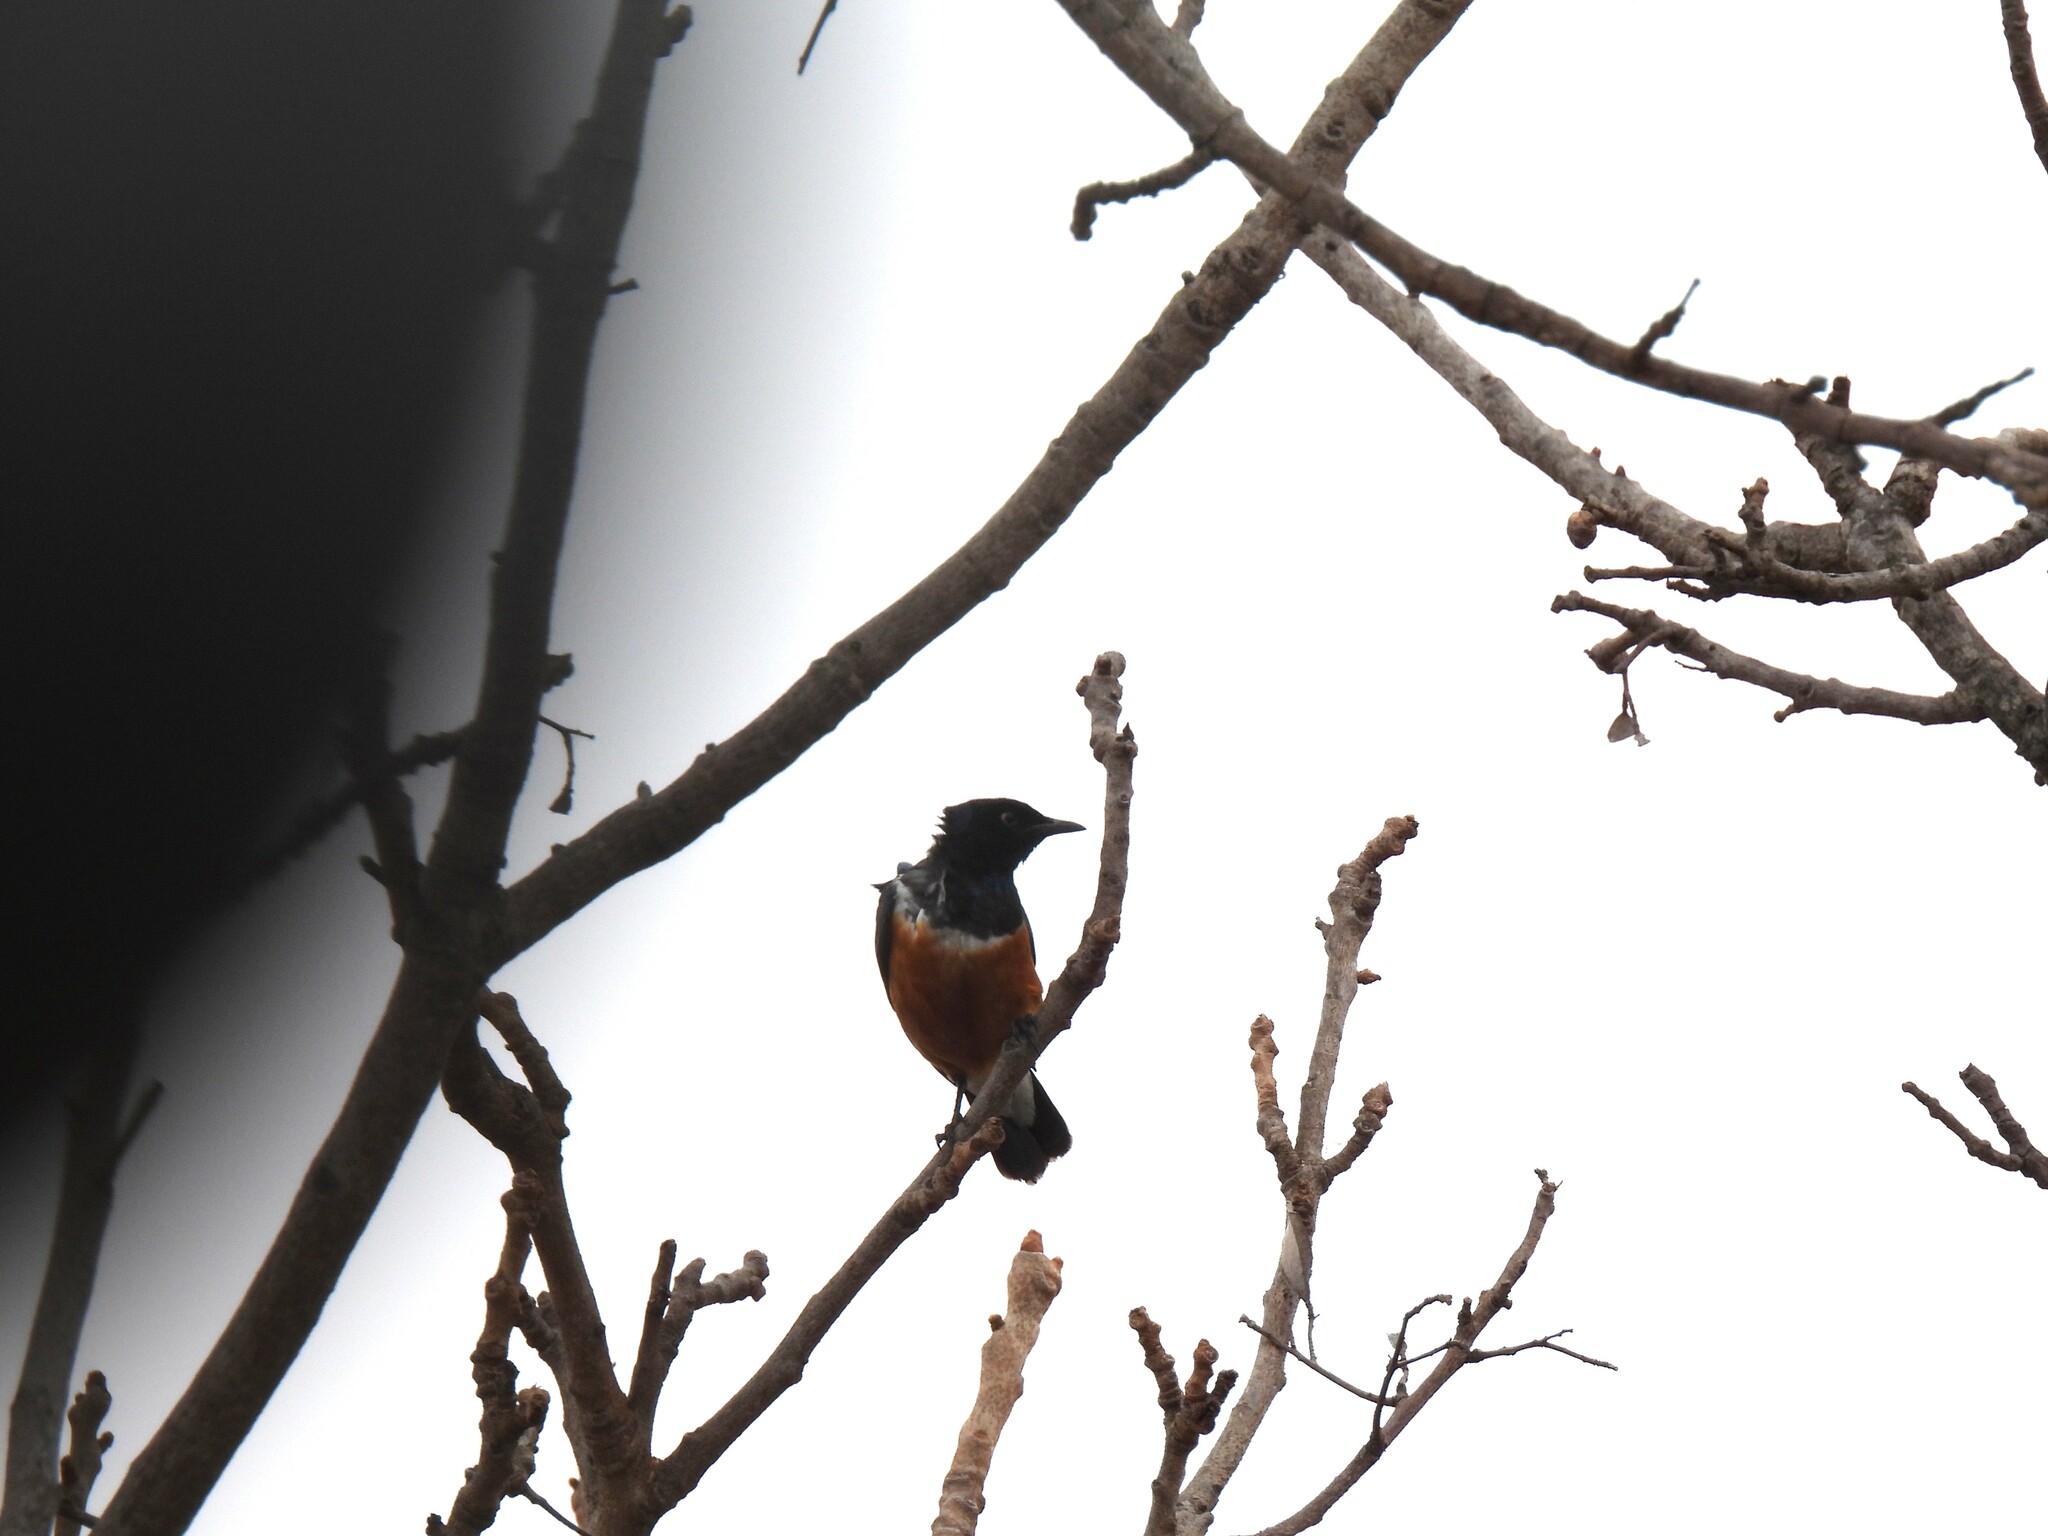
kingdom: Animalia
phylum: Chordata
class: Aves
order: Passeriformes
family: Sturnidae
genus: Lamprotornis
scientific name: Lamprotornis superbus
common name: Superb starling
